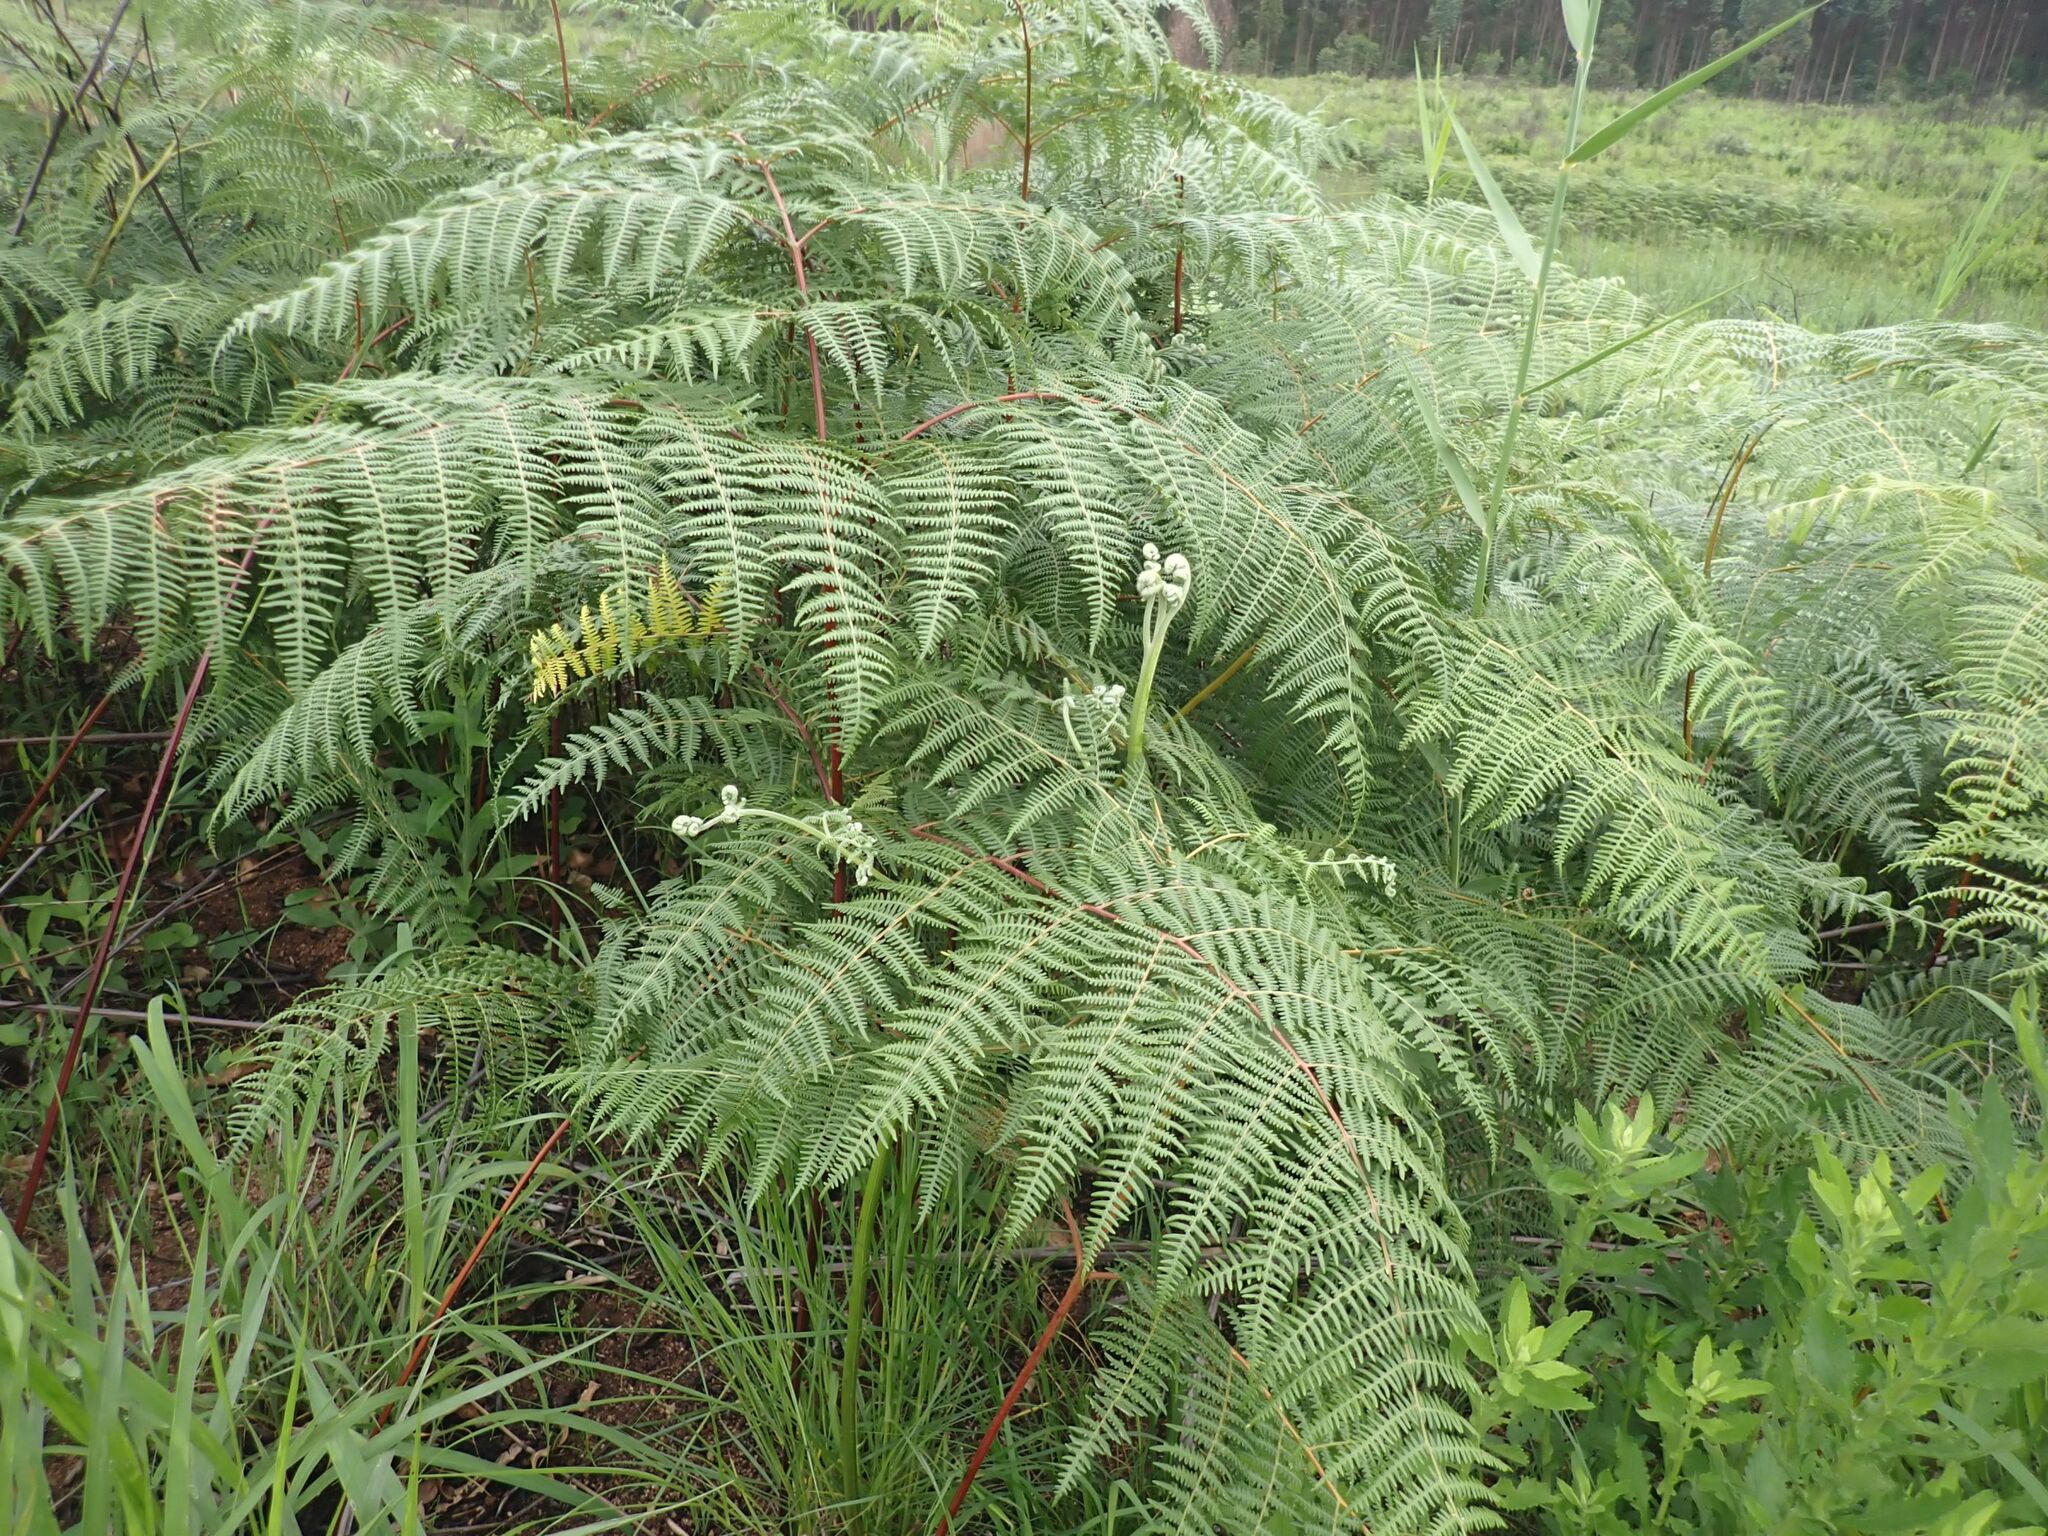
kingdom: Plantae
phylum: Tracheophyta
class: Polypodiopsida
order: Polypodiales
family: Dennstaedtiaceae
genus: Pteridium
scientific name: Pteridium aquilinum
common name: Bracken
